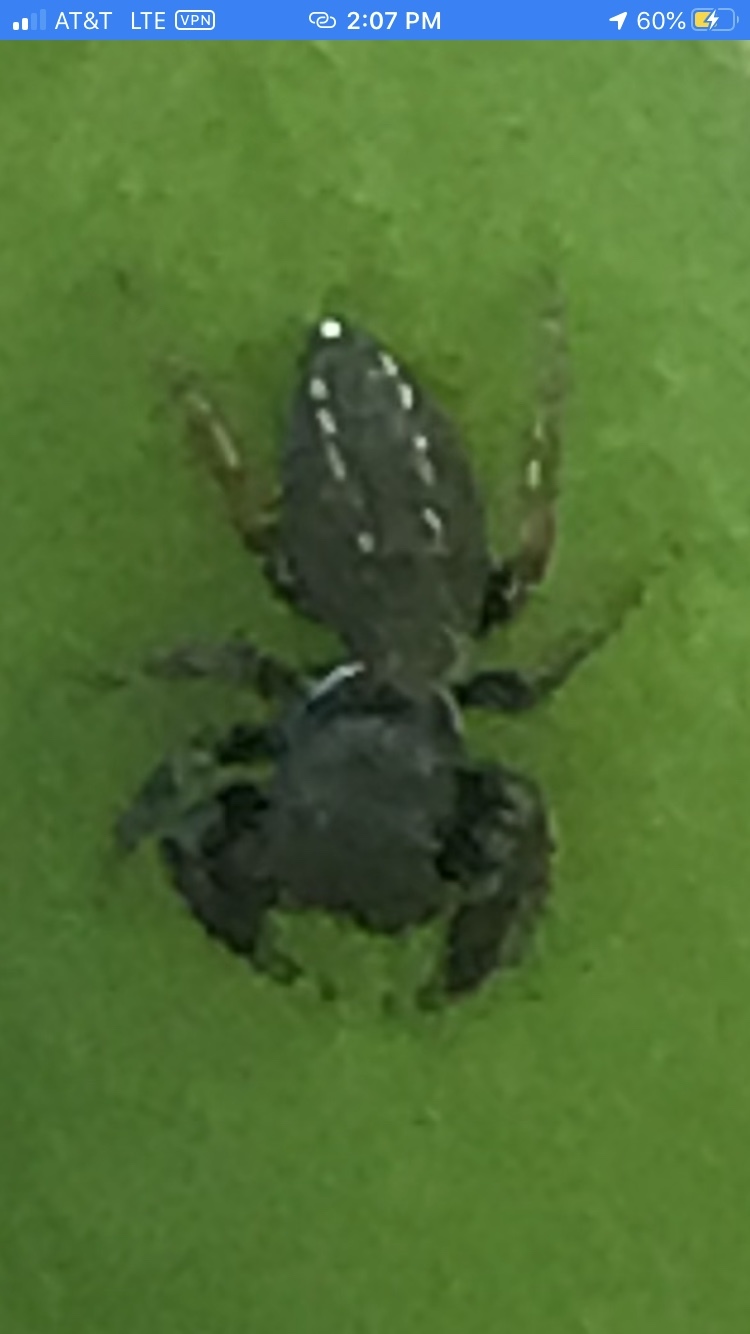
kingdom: Animalia
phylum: Arthropoda
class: Arachnida
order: Araneae
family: Salticidae
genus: Metacyrba
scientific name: Metacyrba taeniola
